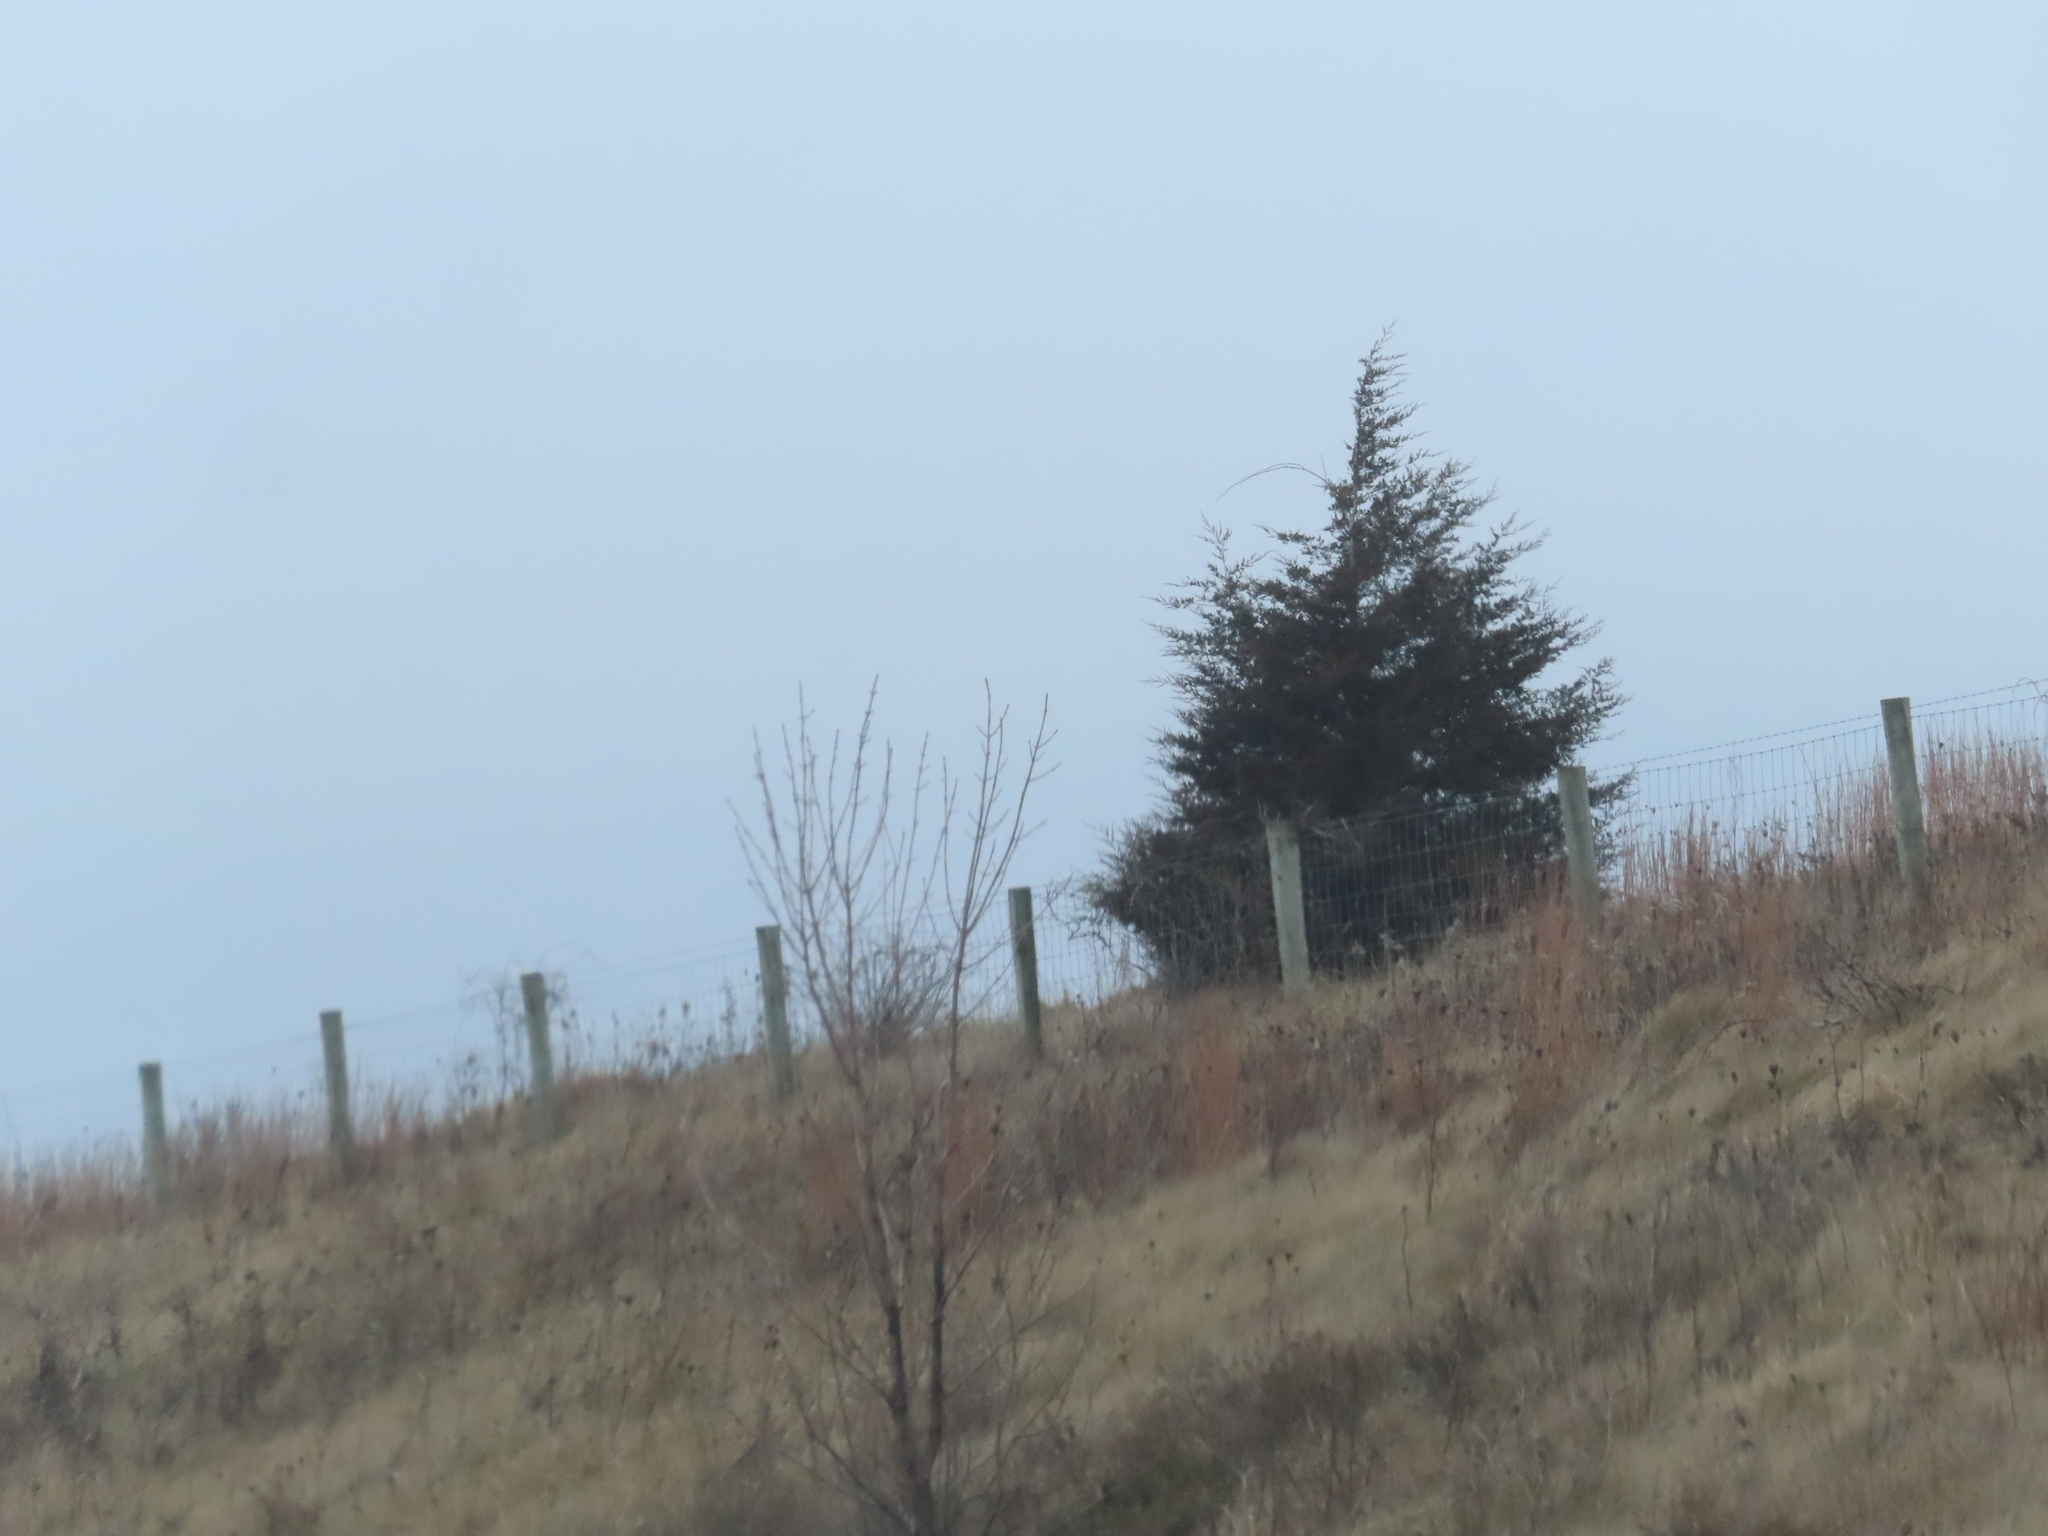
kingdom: Plantae
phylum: Tracheophyta
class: Pinopsida
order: Pinales
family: Cupressaceae
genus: Juniperus
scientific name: Juniperus virginiana
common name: Red juniper
